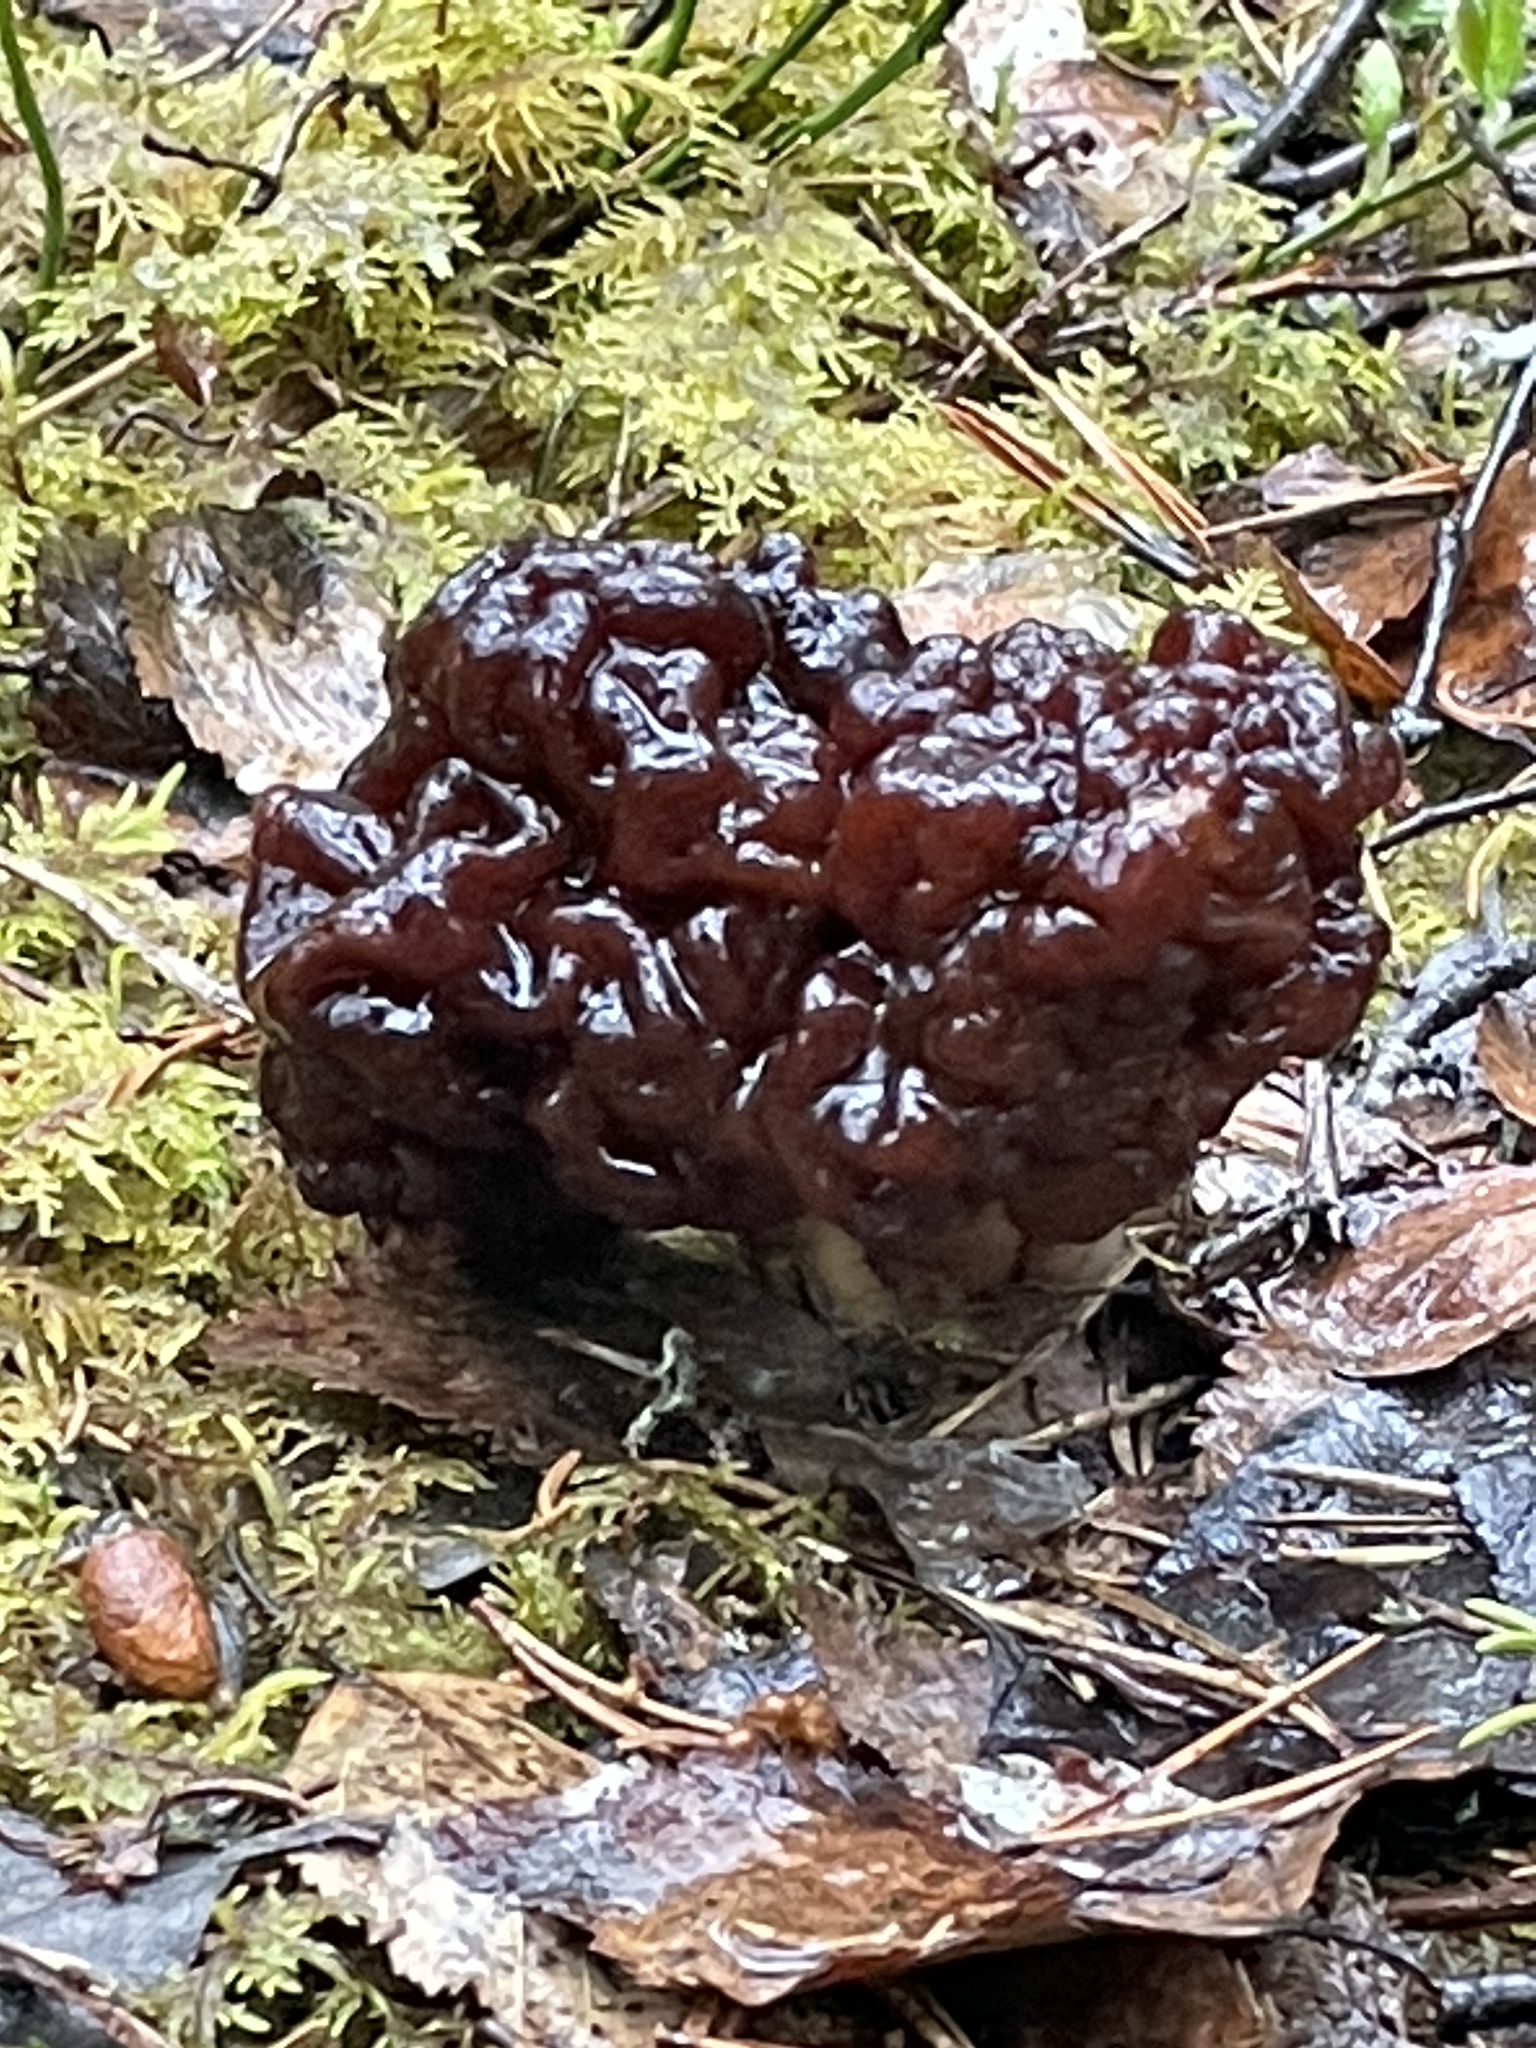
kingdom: Fungi
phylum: Ascomycota
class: Pezizomycetes
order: Pezizales
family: Discinaceae
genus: Gyromitra
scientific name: Gyromitra esculenta
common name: False morel
